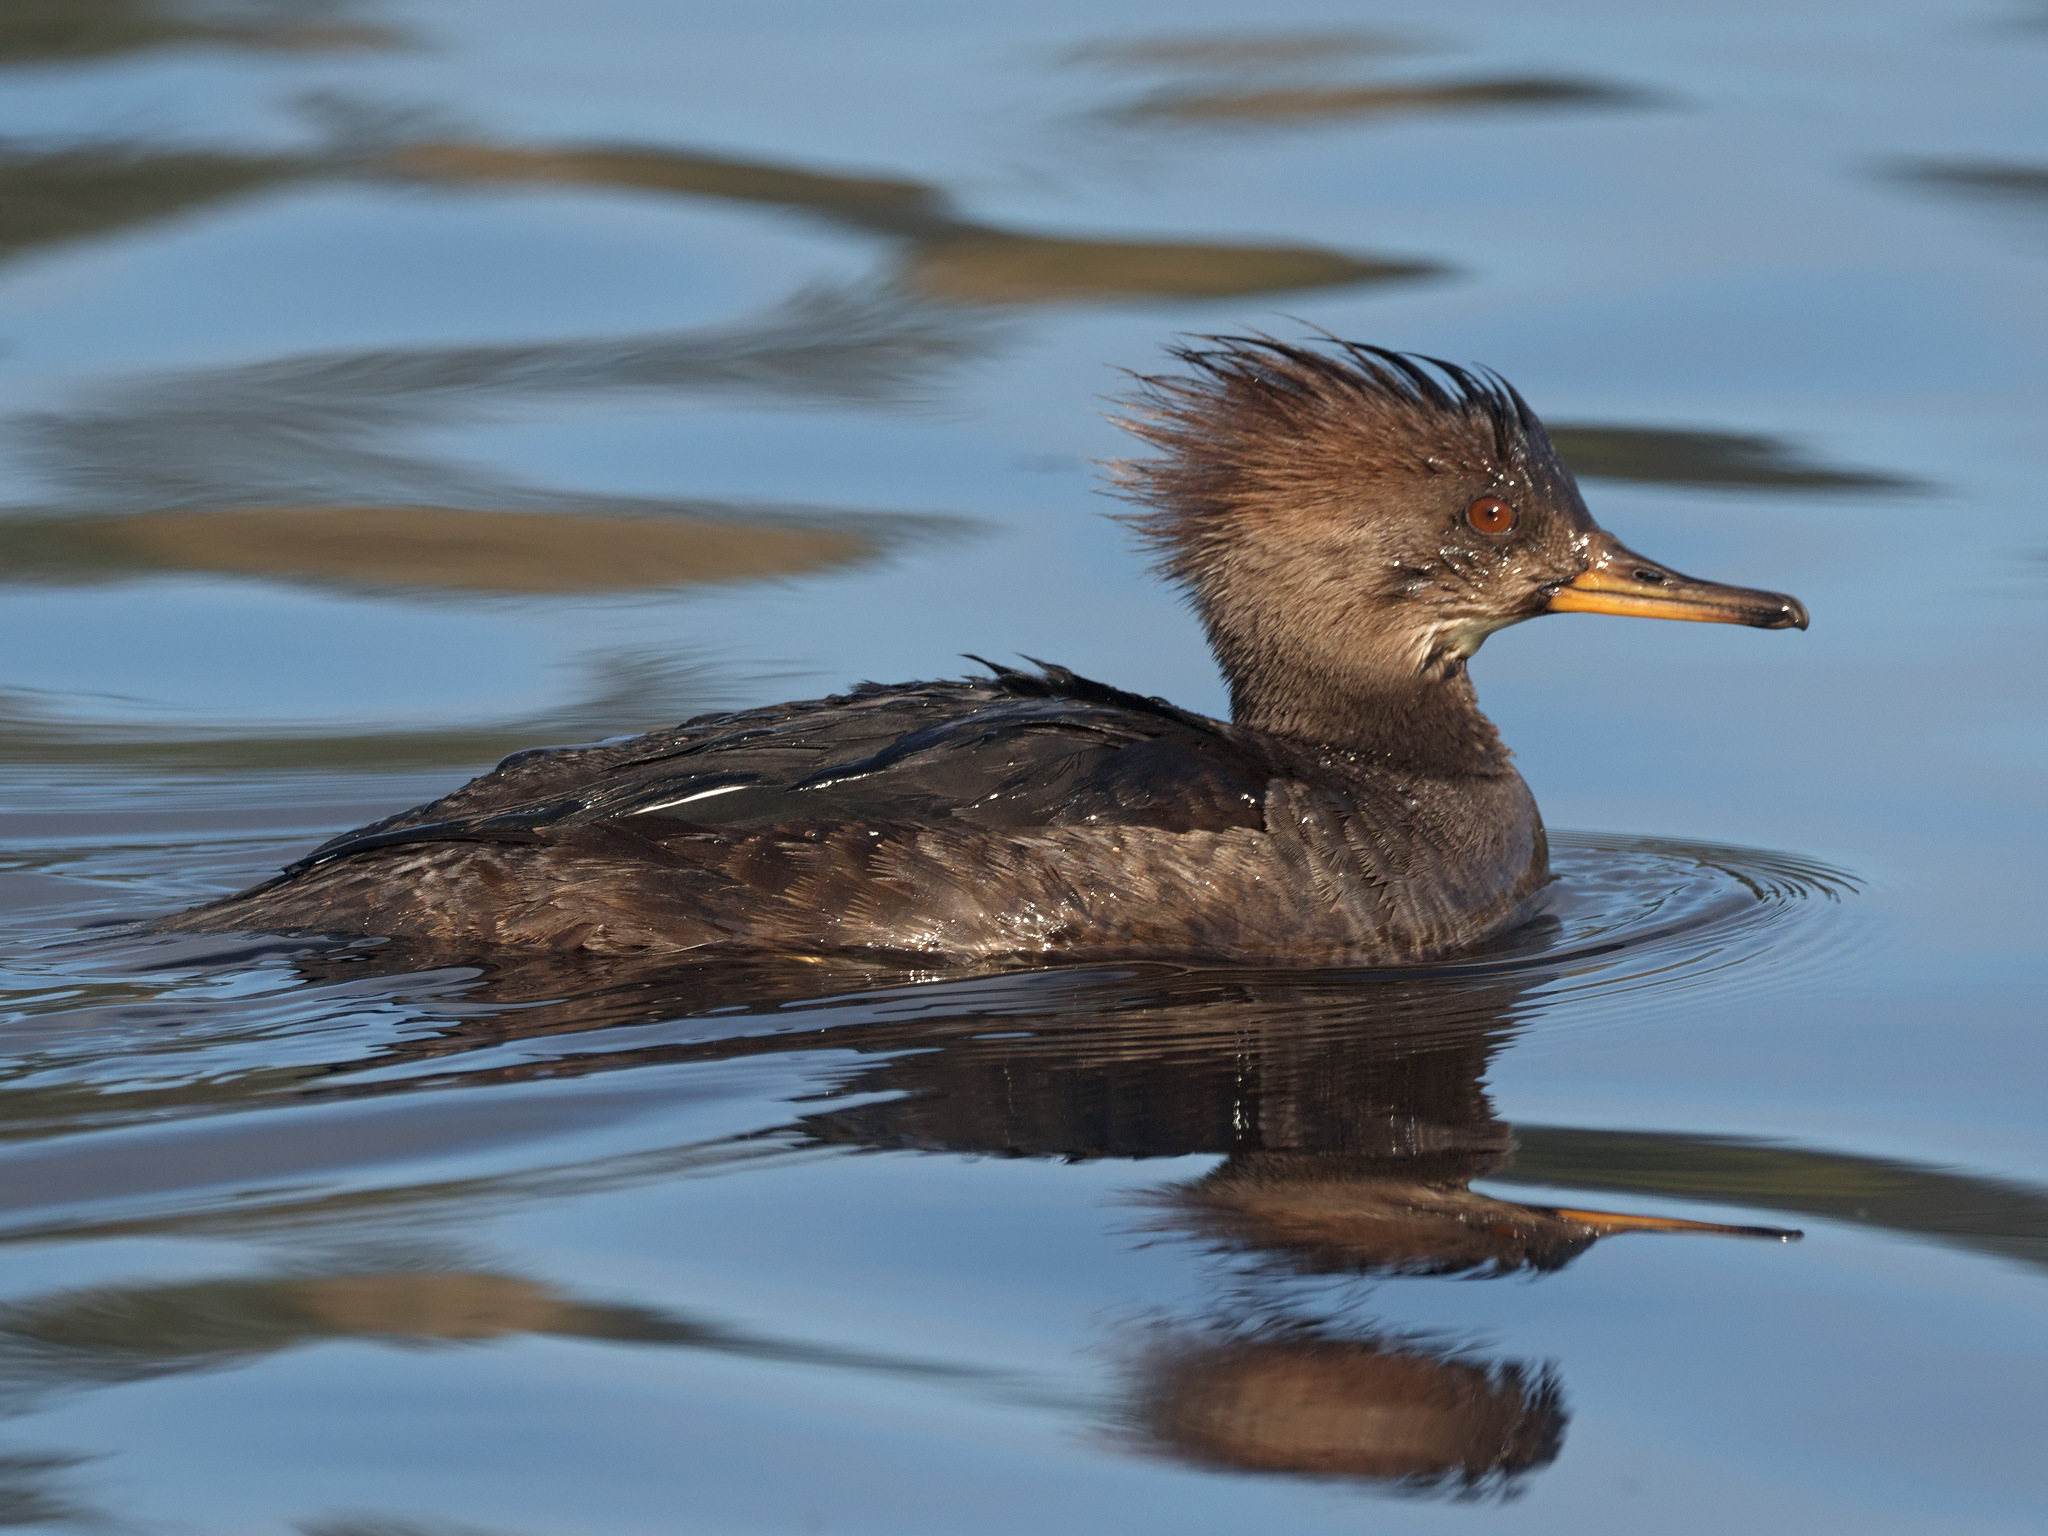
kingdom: Animalia
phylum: Chordata
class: Aves
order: Anseriformes
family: Anatidae
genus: Lophodytes
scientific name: Lophodytes cucullatus
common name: Hooded merganser
